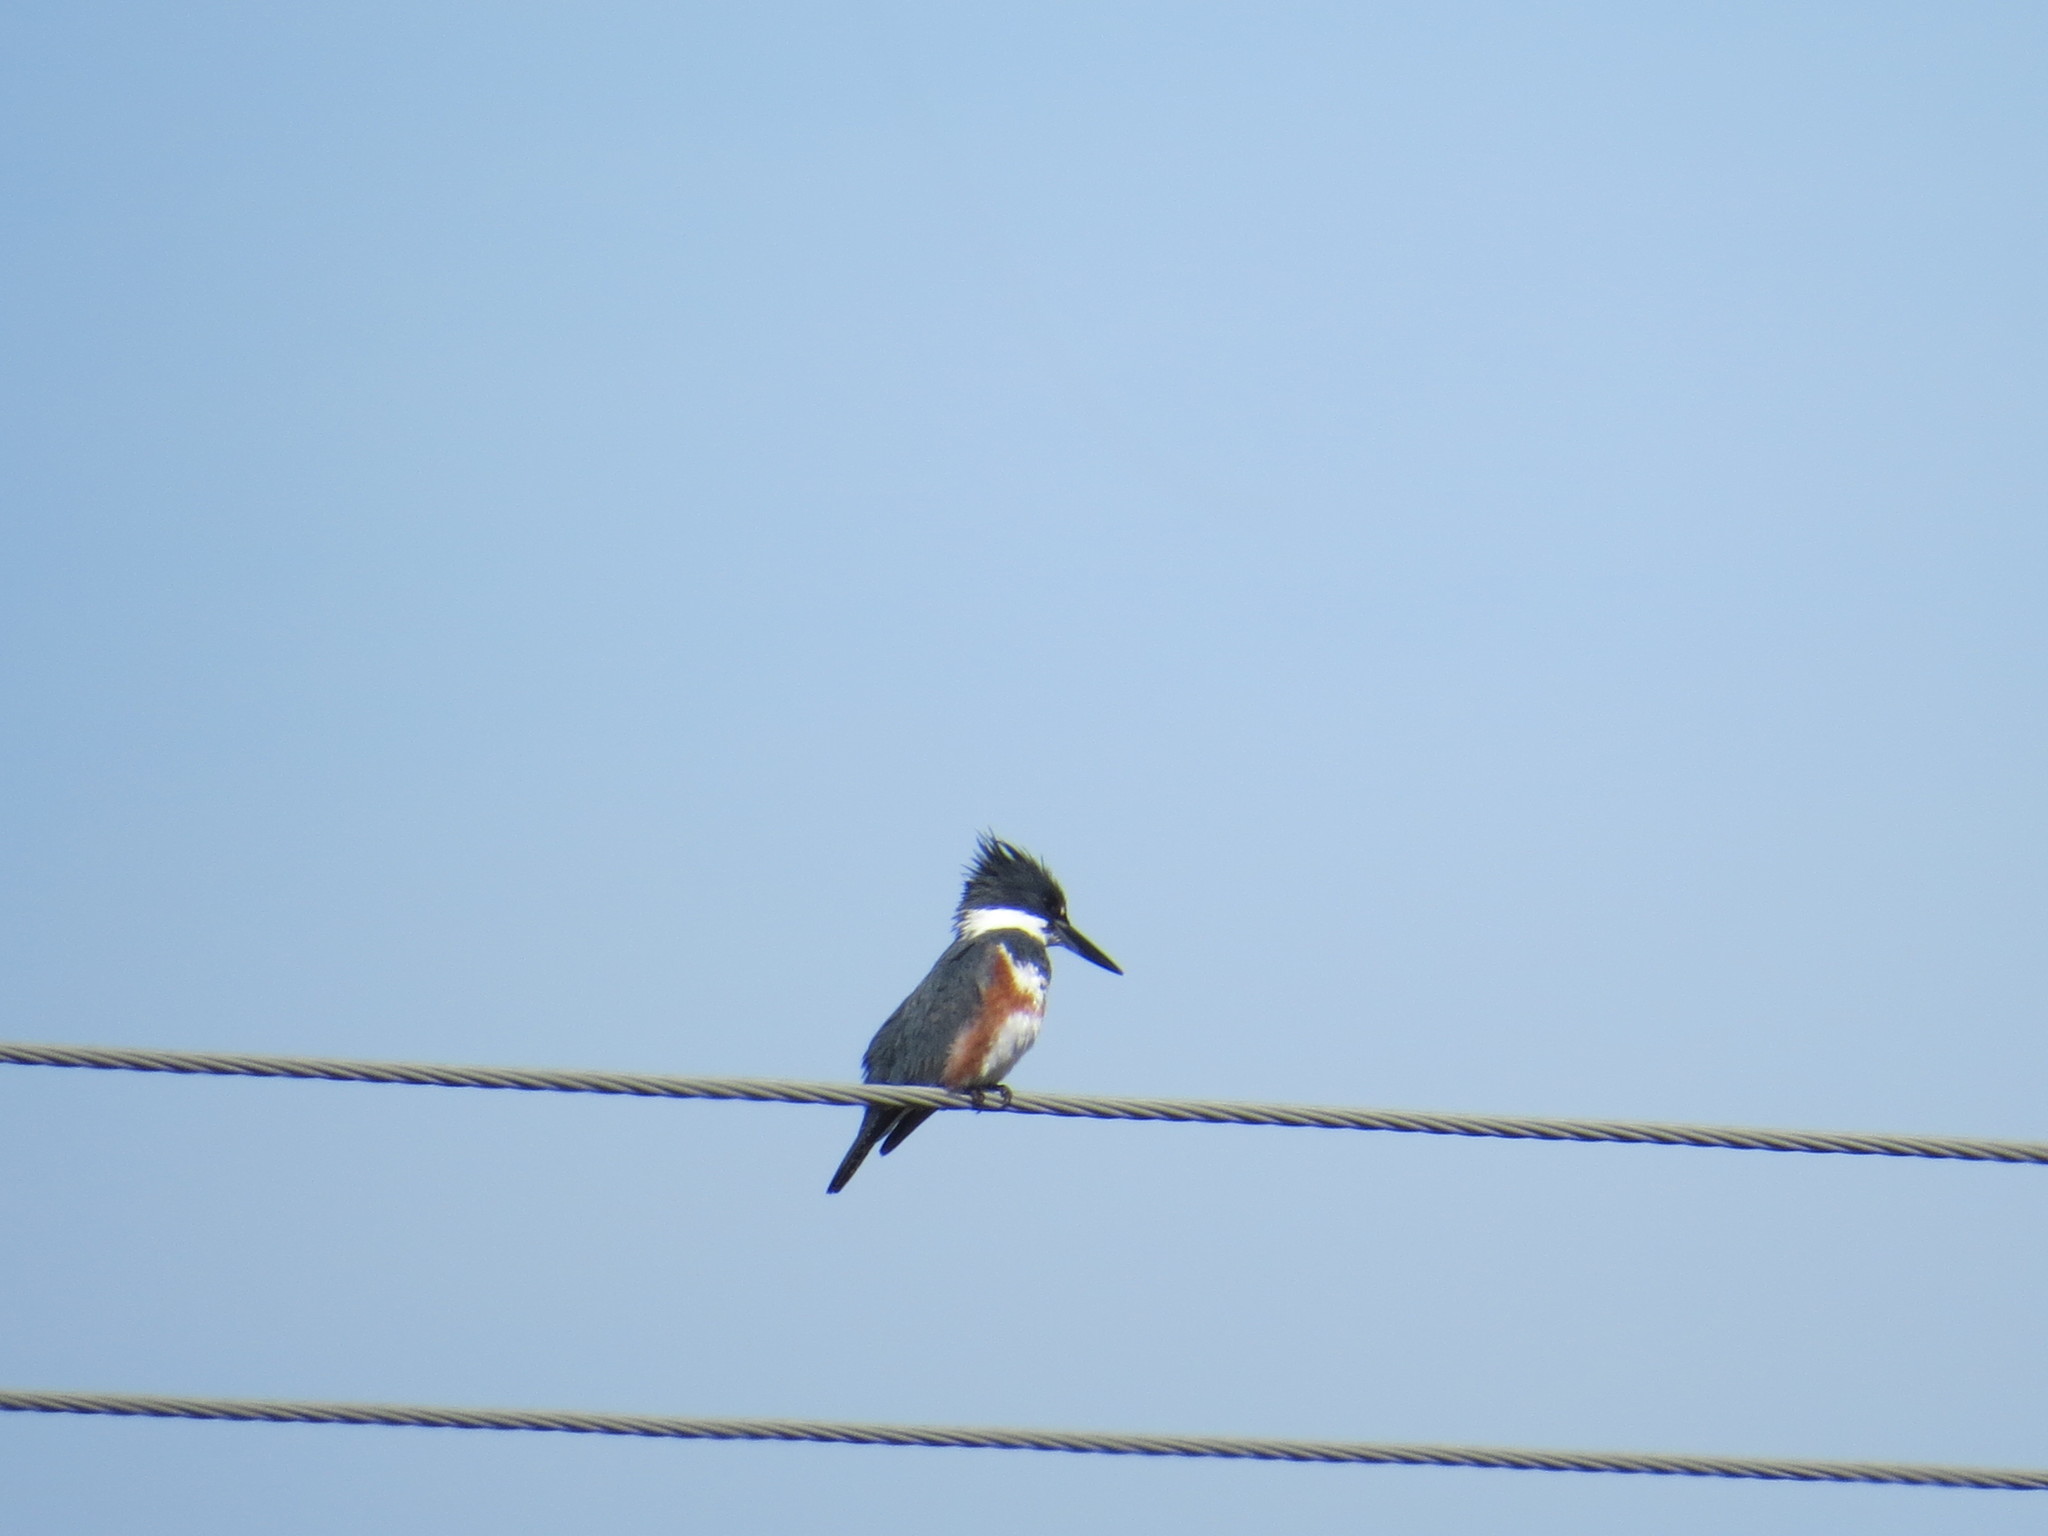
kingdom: Animalia
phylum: Chordata
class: Aves
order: Coraciiformes
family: Alcedinidae
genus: Megaceryle
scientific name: Megaceryle alcyon
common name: Belted kingfisher
